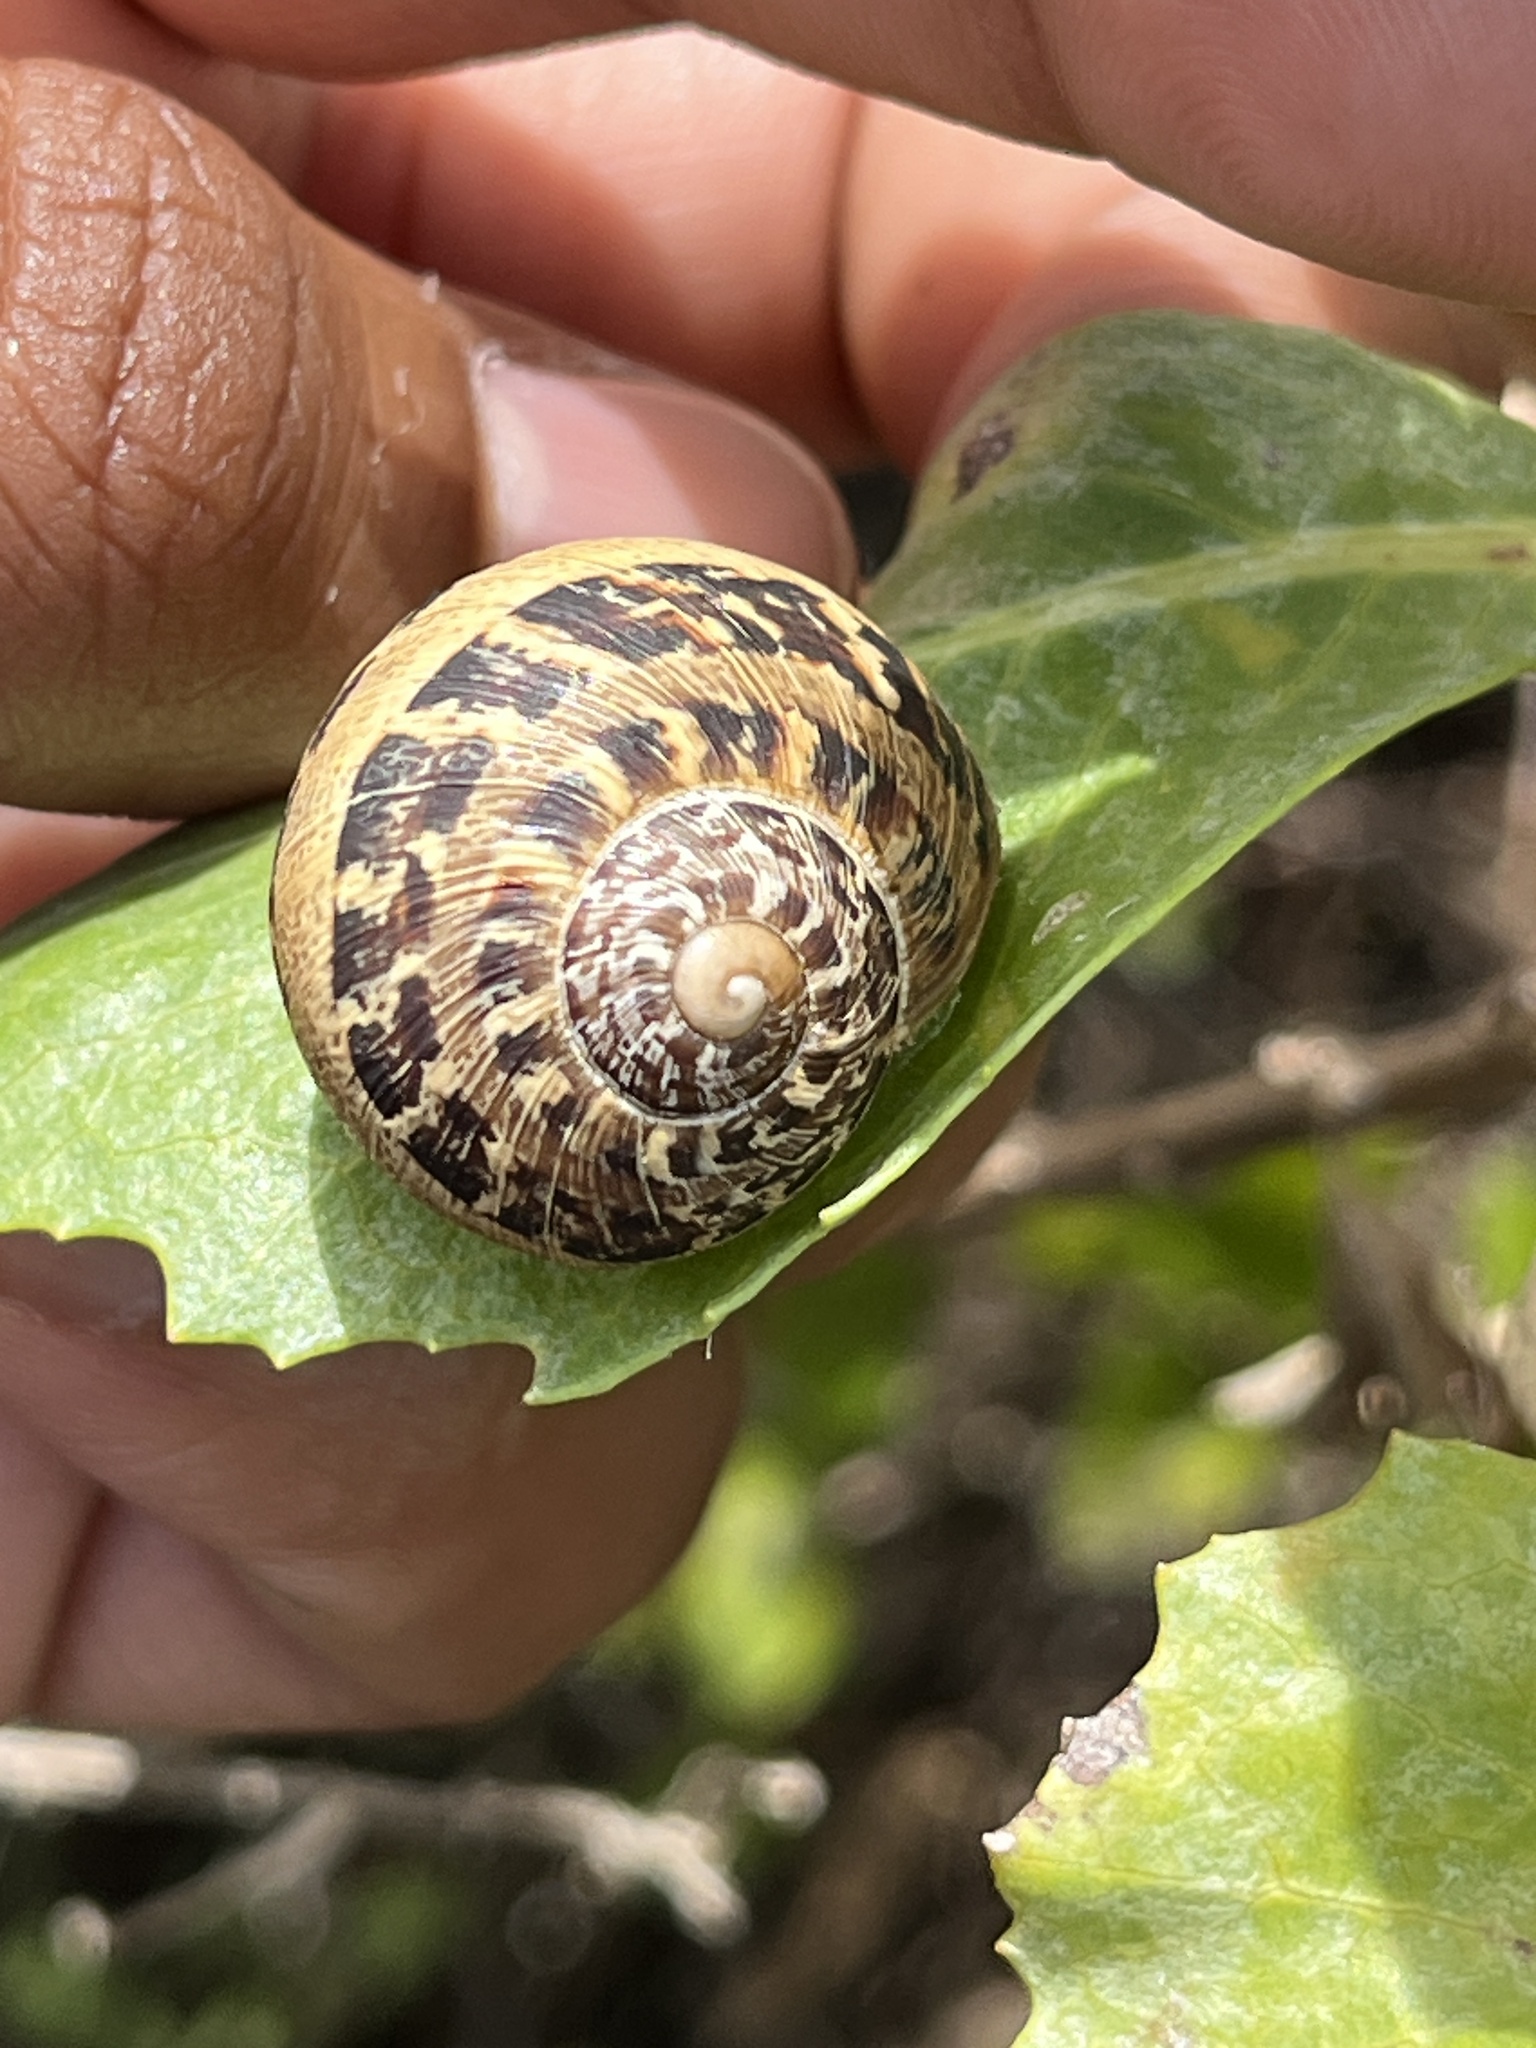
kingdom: Animalia
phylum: Mollusca
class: Gastropoda
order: Stylommatophora
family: Helicidae
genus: Cornu
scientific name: Cornu aspersum
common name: Brown garden snail
